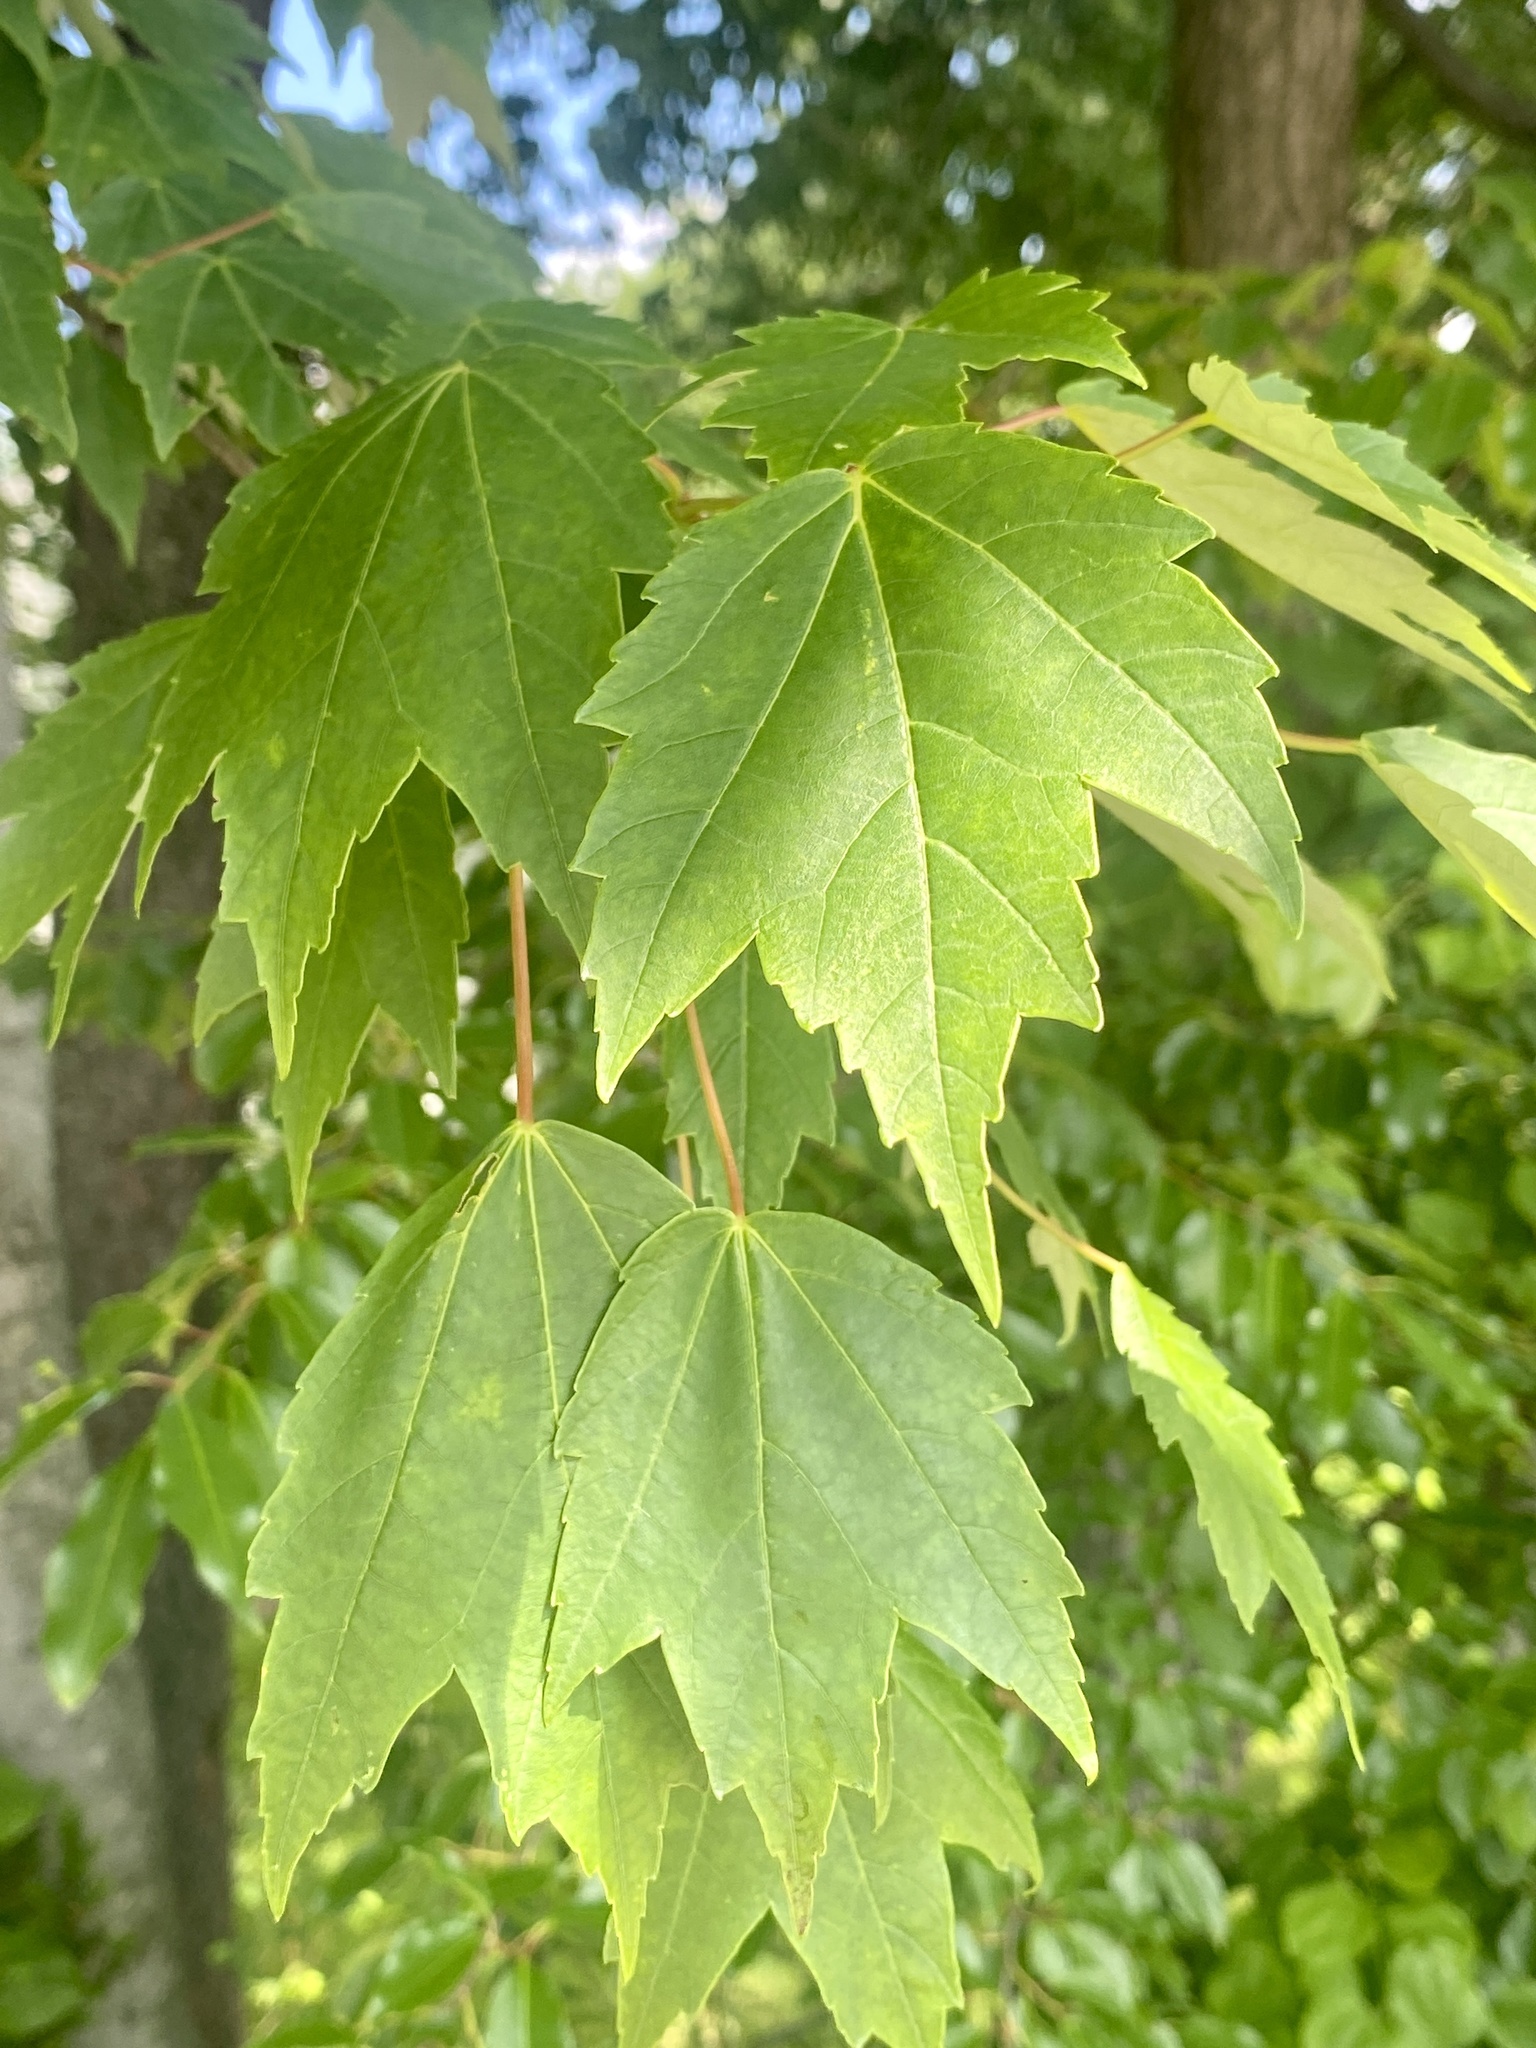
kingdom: Plantae
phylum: Tracheophyta
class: Magnoliopsida
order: Sapindales
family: Sapindaceae
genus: Acer
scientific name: Acer rubrum
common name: Red maple
